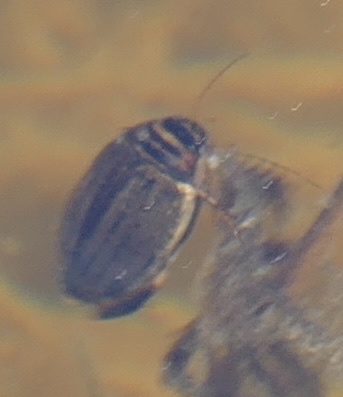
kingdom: Animalia
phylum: Arthropoda
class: Insecta
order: Coleoptera
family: Dytiscidae
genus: Acilius
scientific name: Acilius
